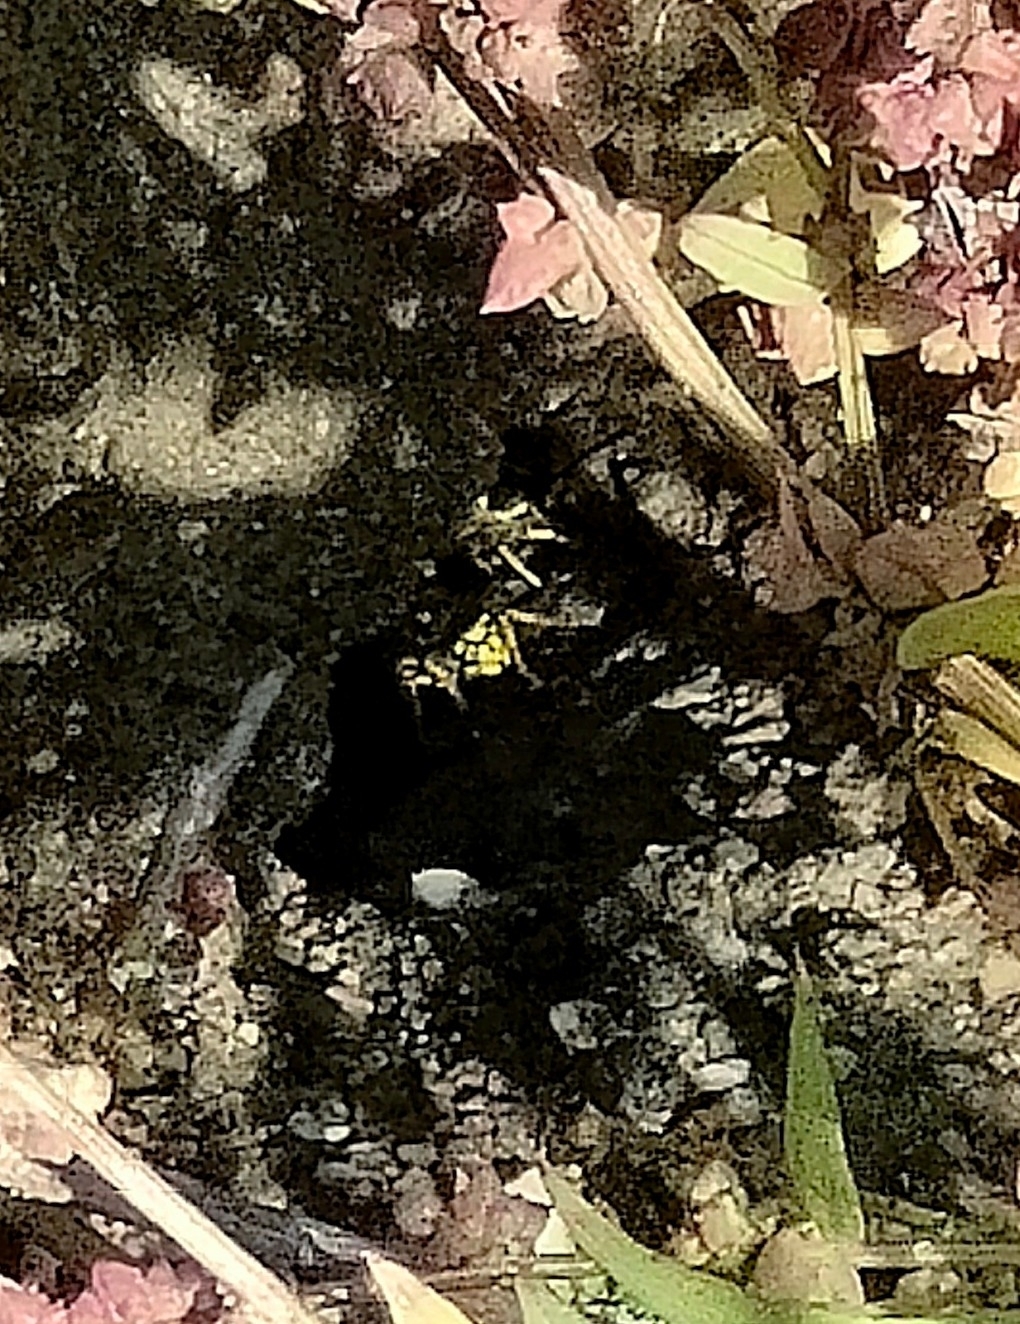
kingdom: Animalia
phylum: Arthropoda
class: Insecta
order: Hymenoptera
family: Vespidae
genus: Vespula
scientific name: Vespula germanica
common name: German wasp
